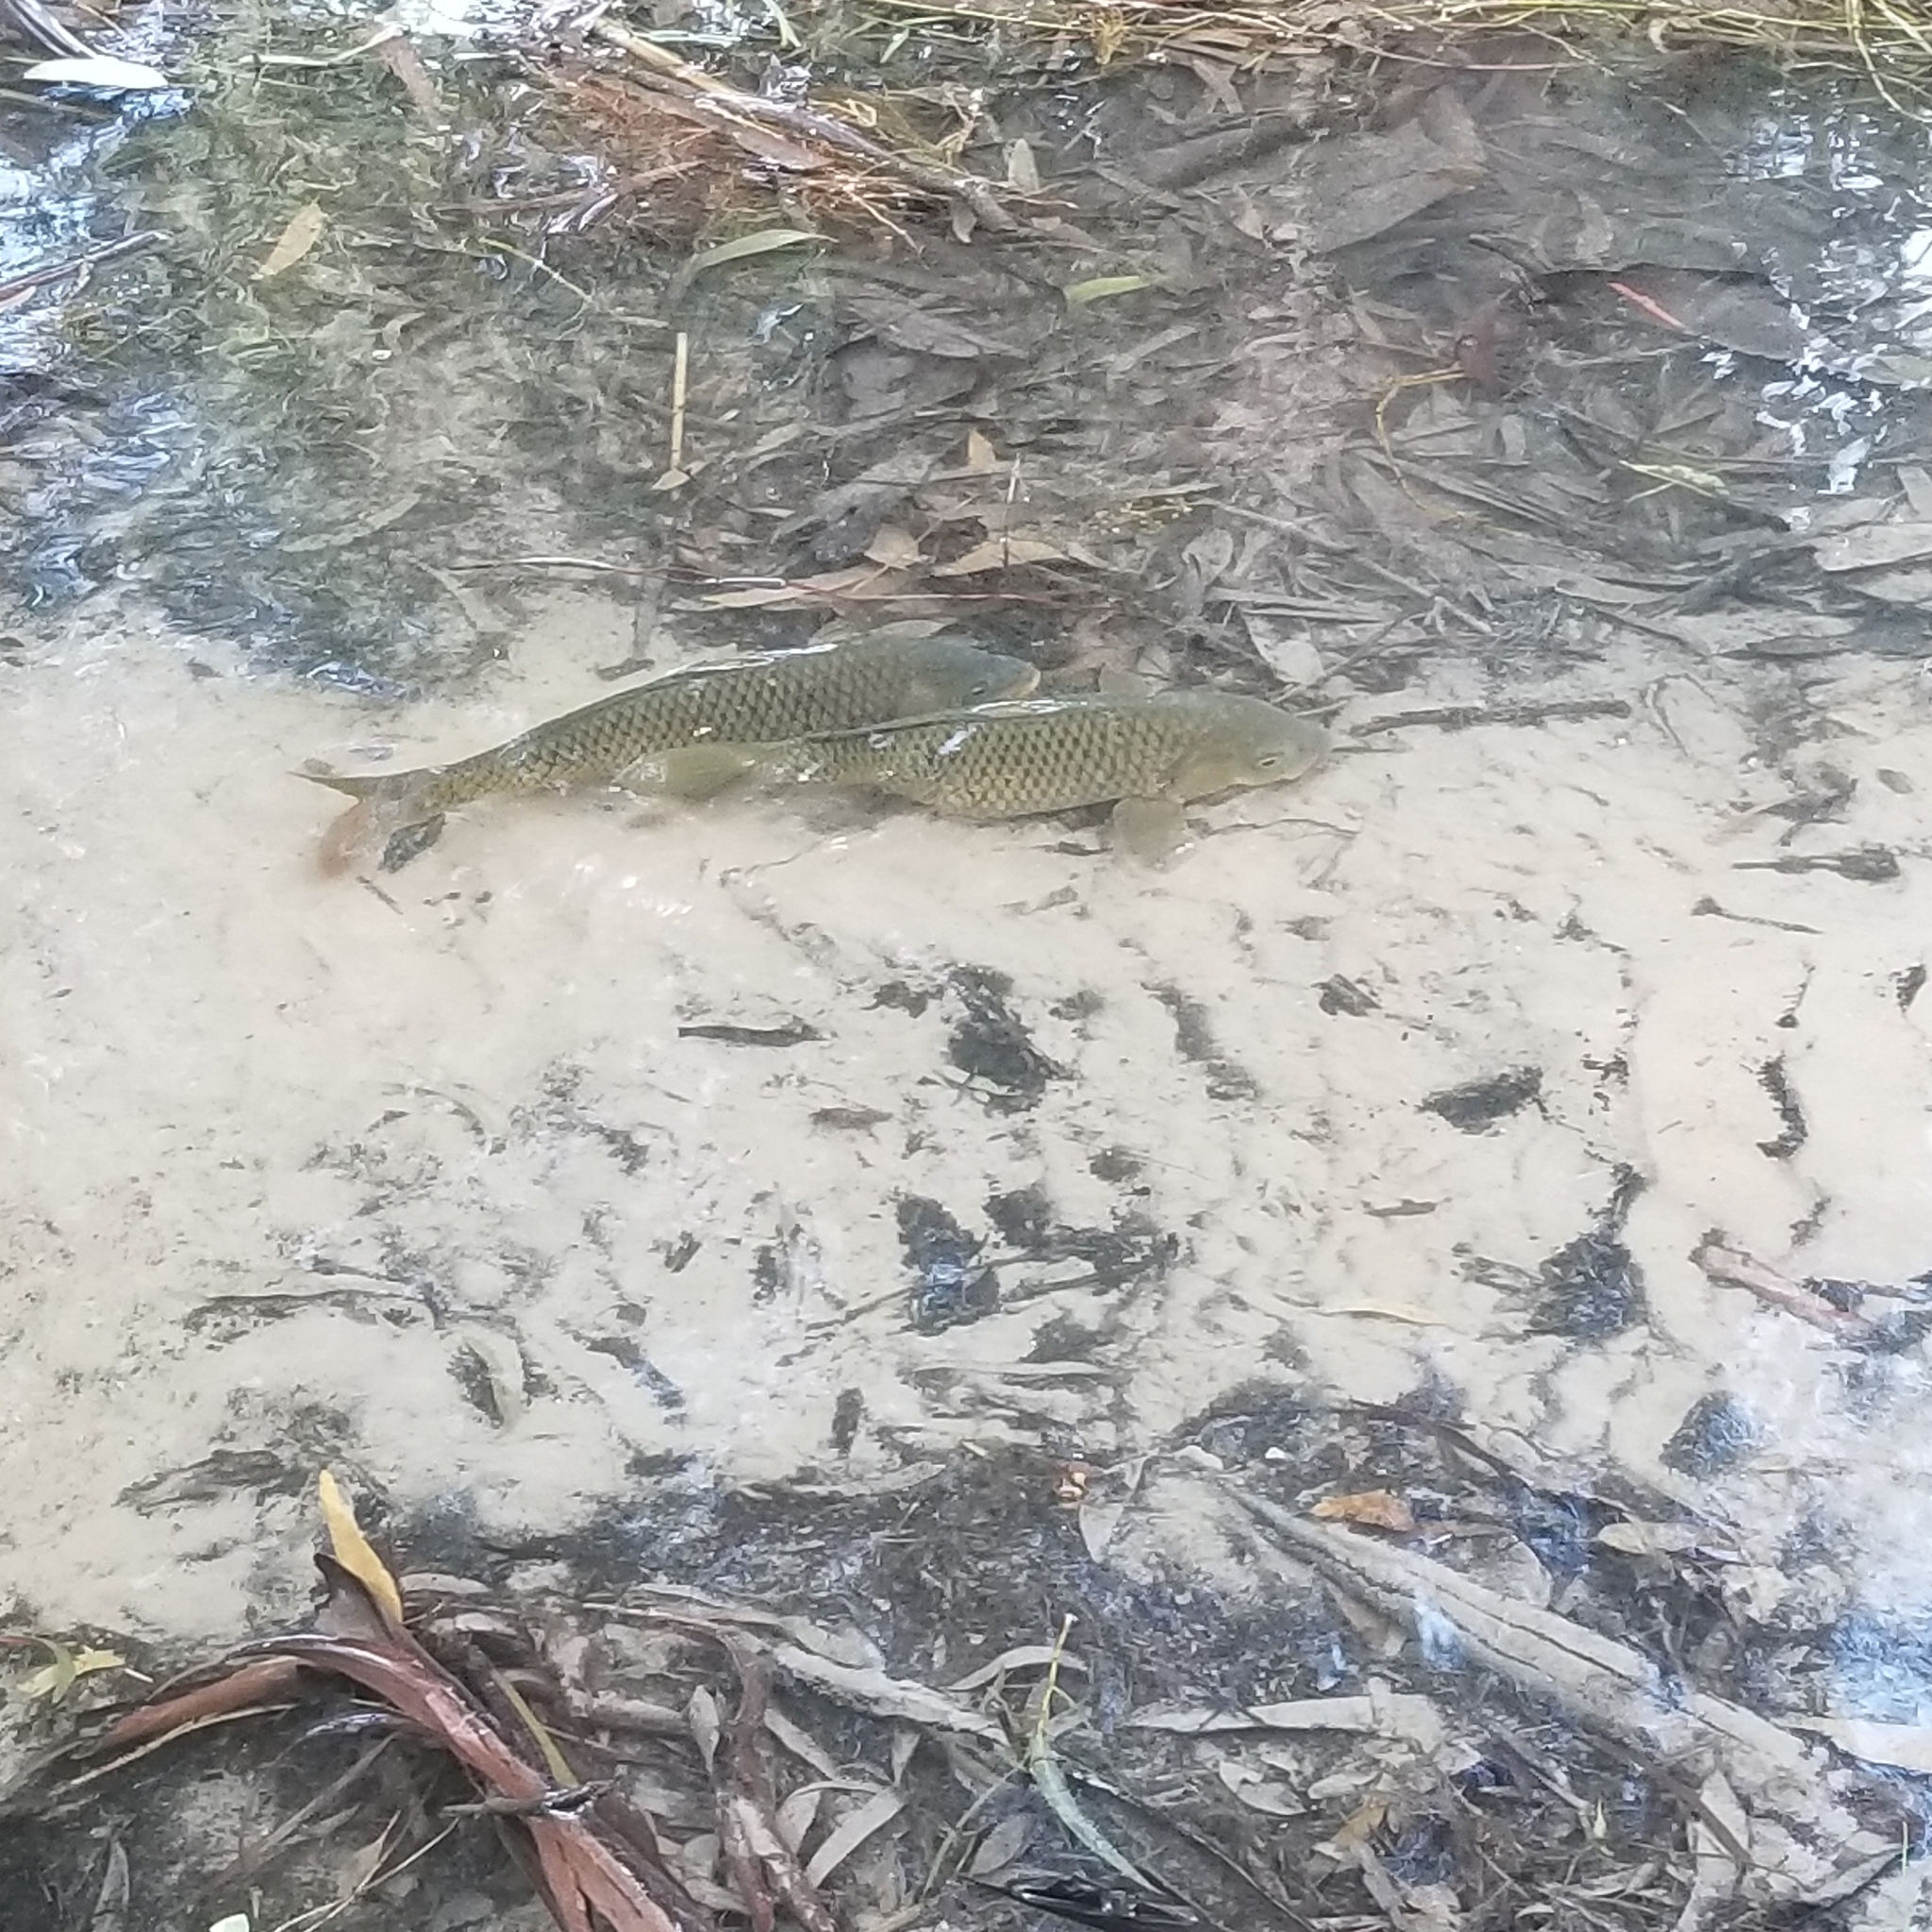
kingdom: Animalia
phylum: Chordata
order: Cypriniformes
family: Cyprinidae
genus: Cyprinus
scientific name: Cyprinus carpio
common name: Common carp
